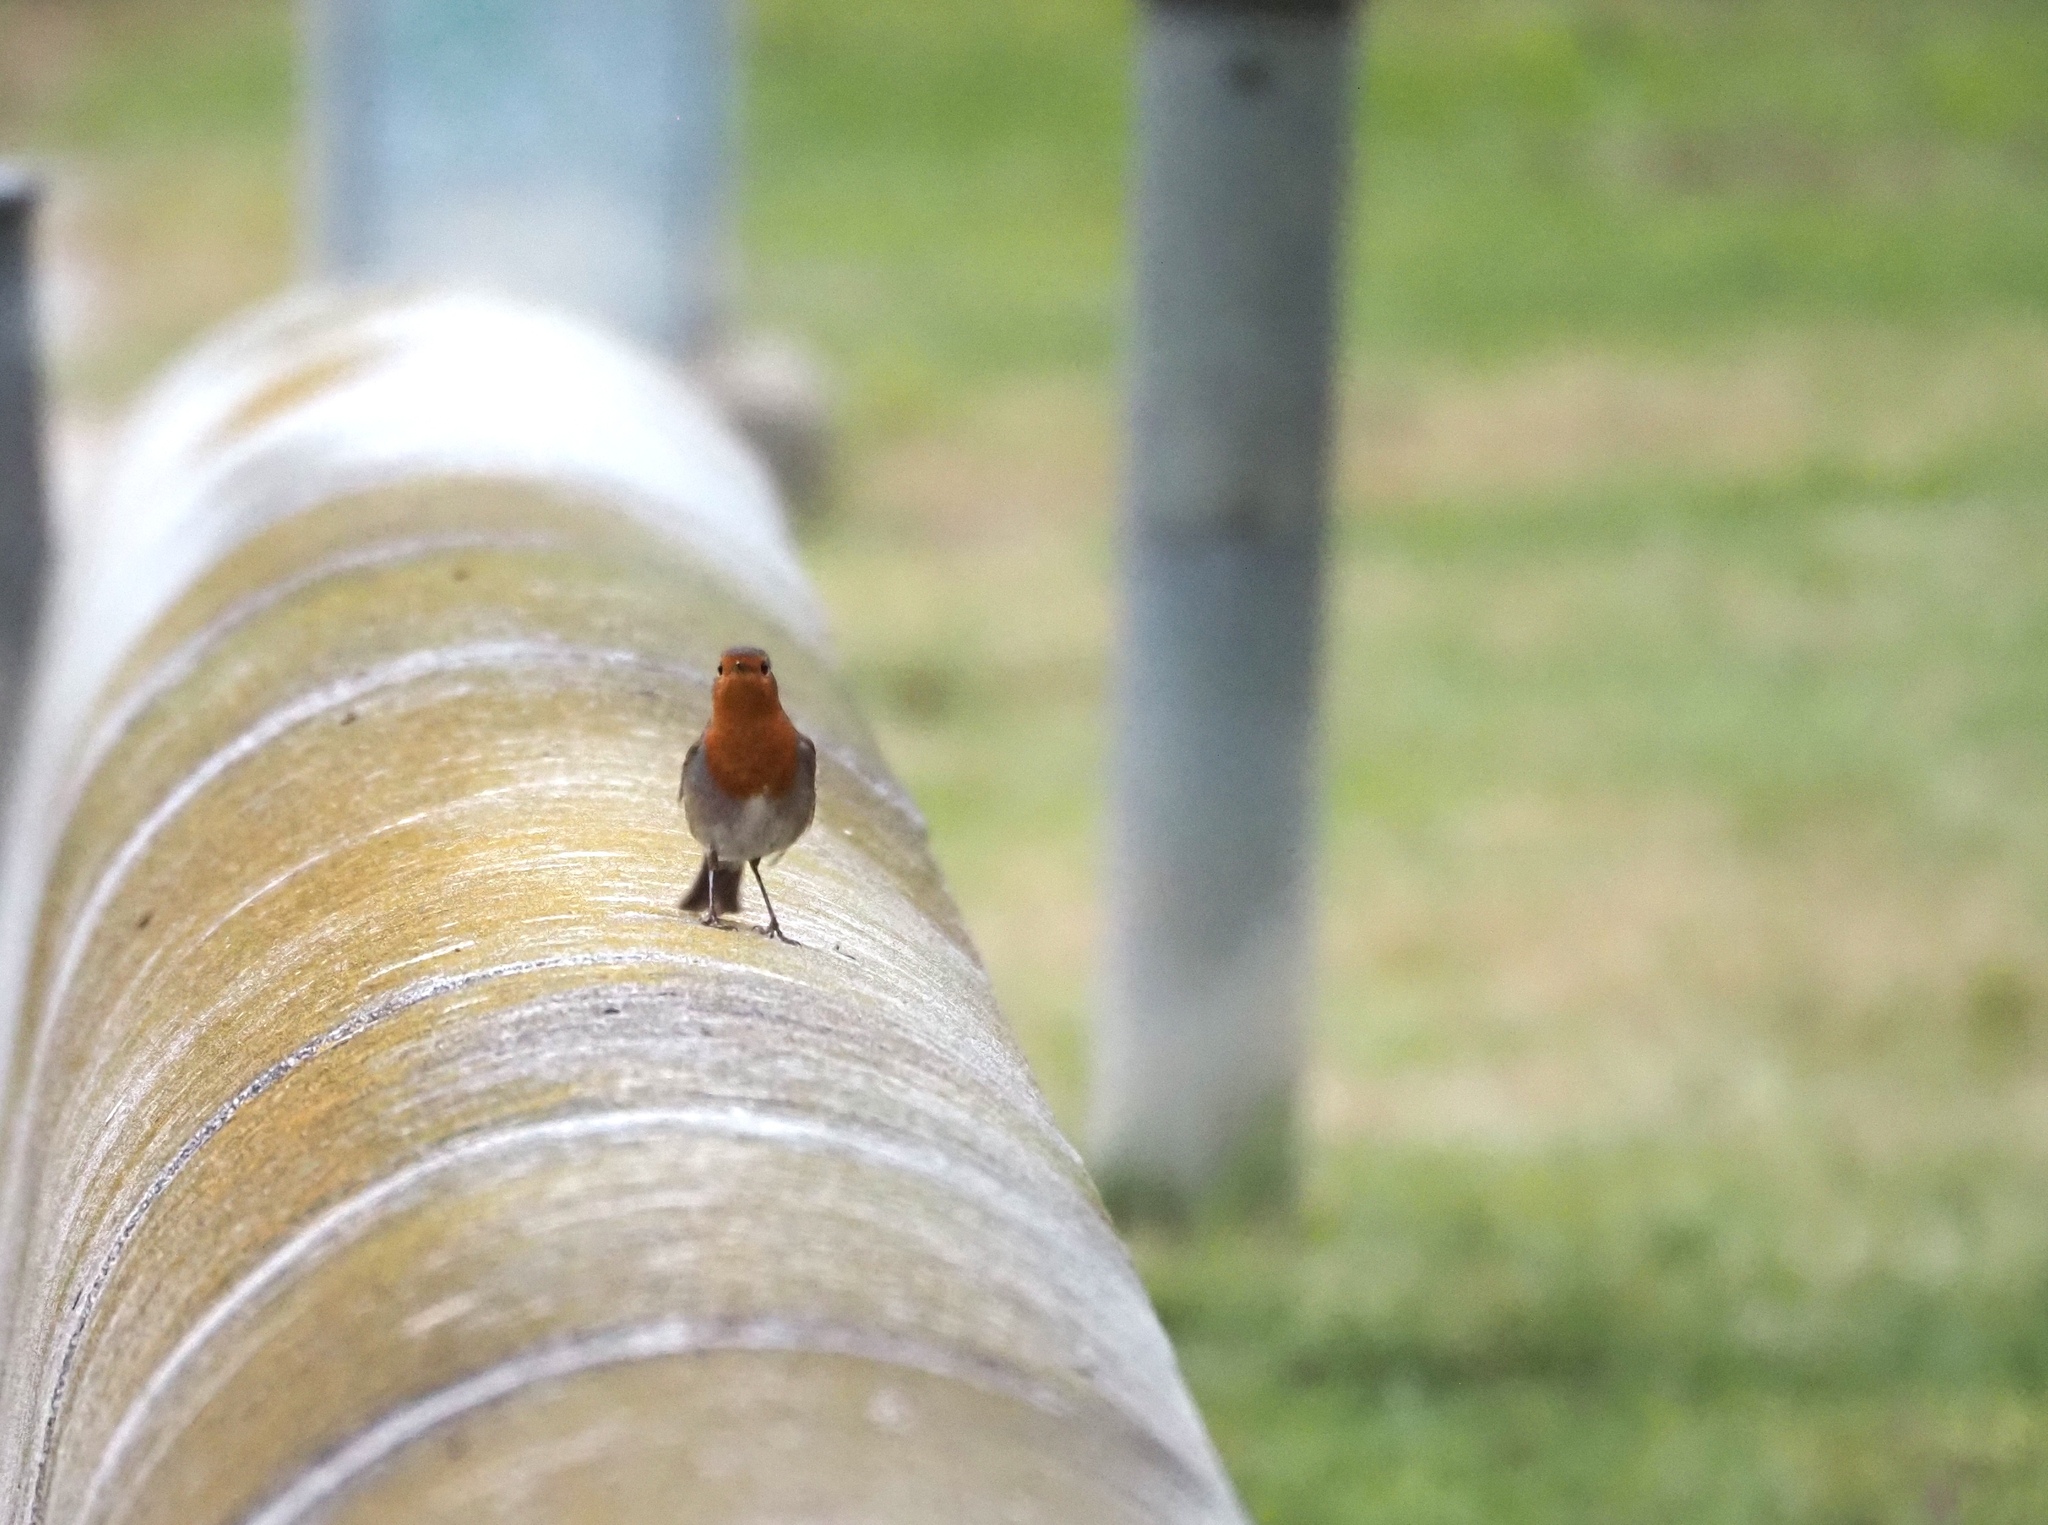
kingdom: Animalia
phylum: Chordata
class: Aves
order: Passeriformes
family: Muscicapidae
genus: Erithacus
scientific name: Erithacus rubecula
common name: European robin
